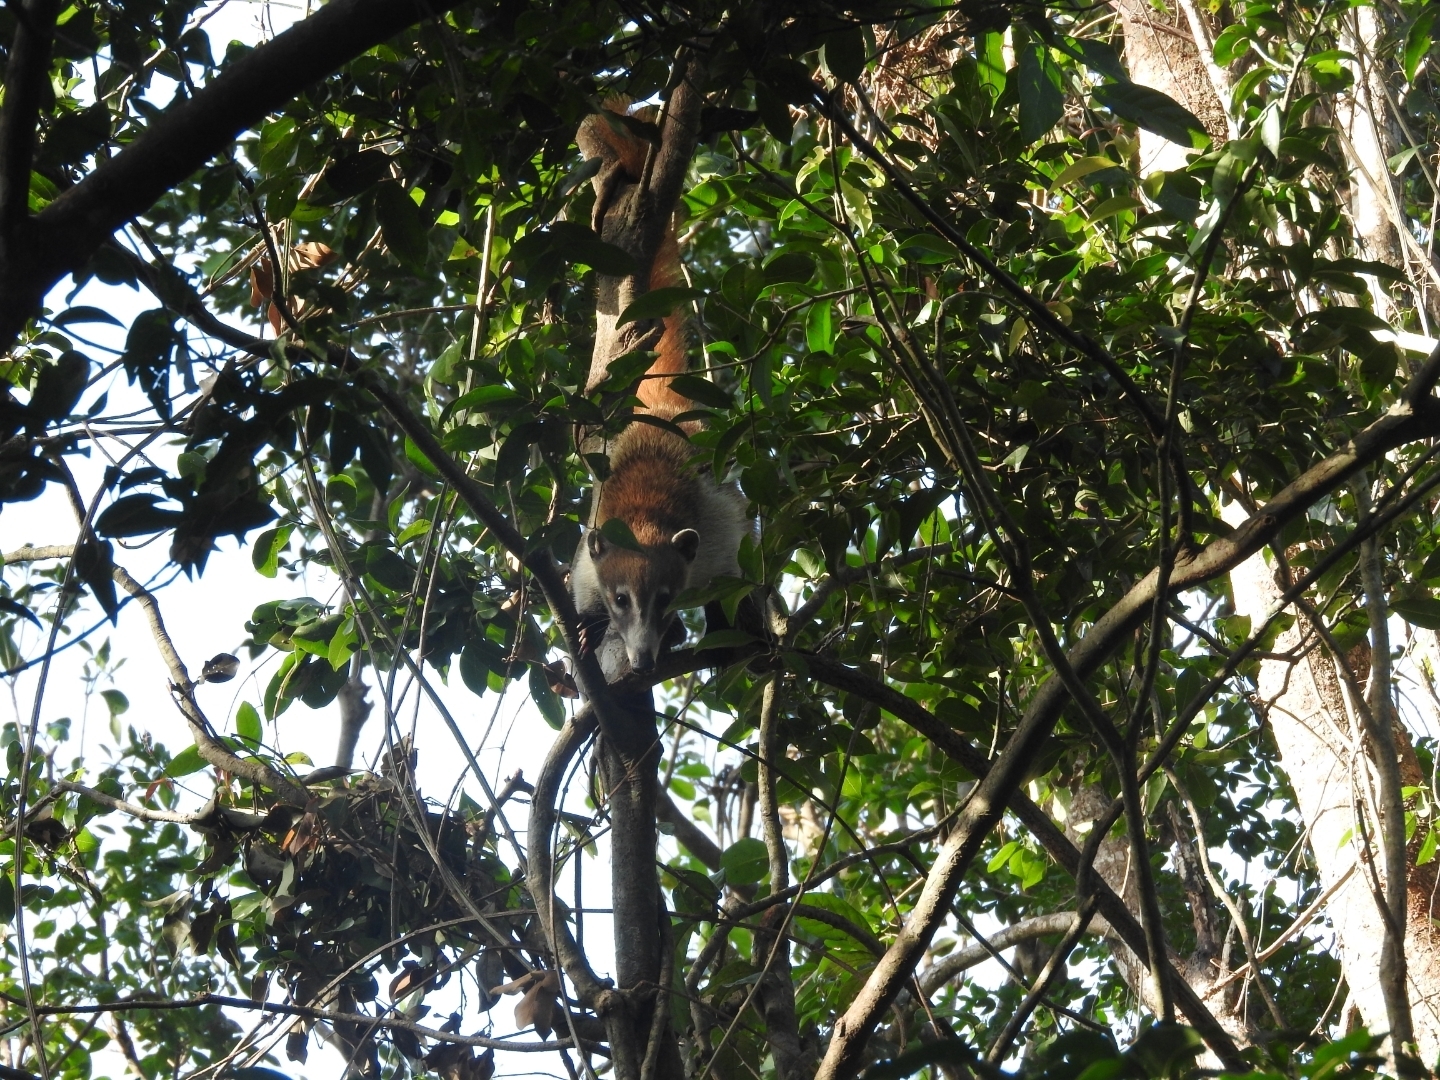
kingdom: Animalia
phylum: Chordata
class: Mammalia
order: Carnivora
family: Procyonidae
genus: Nasua
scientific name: Nasua narica
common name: White-nosed coati
